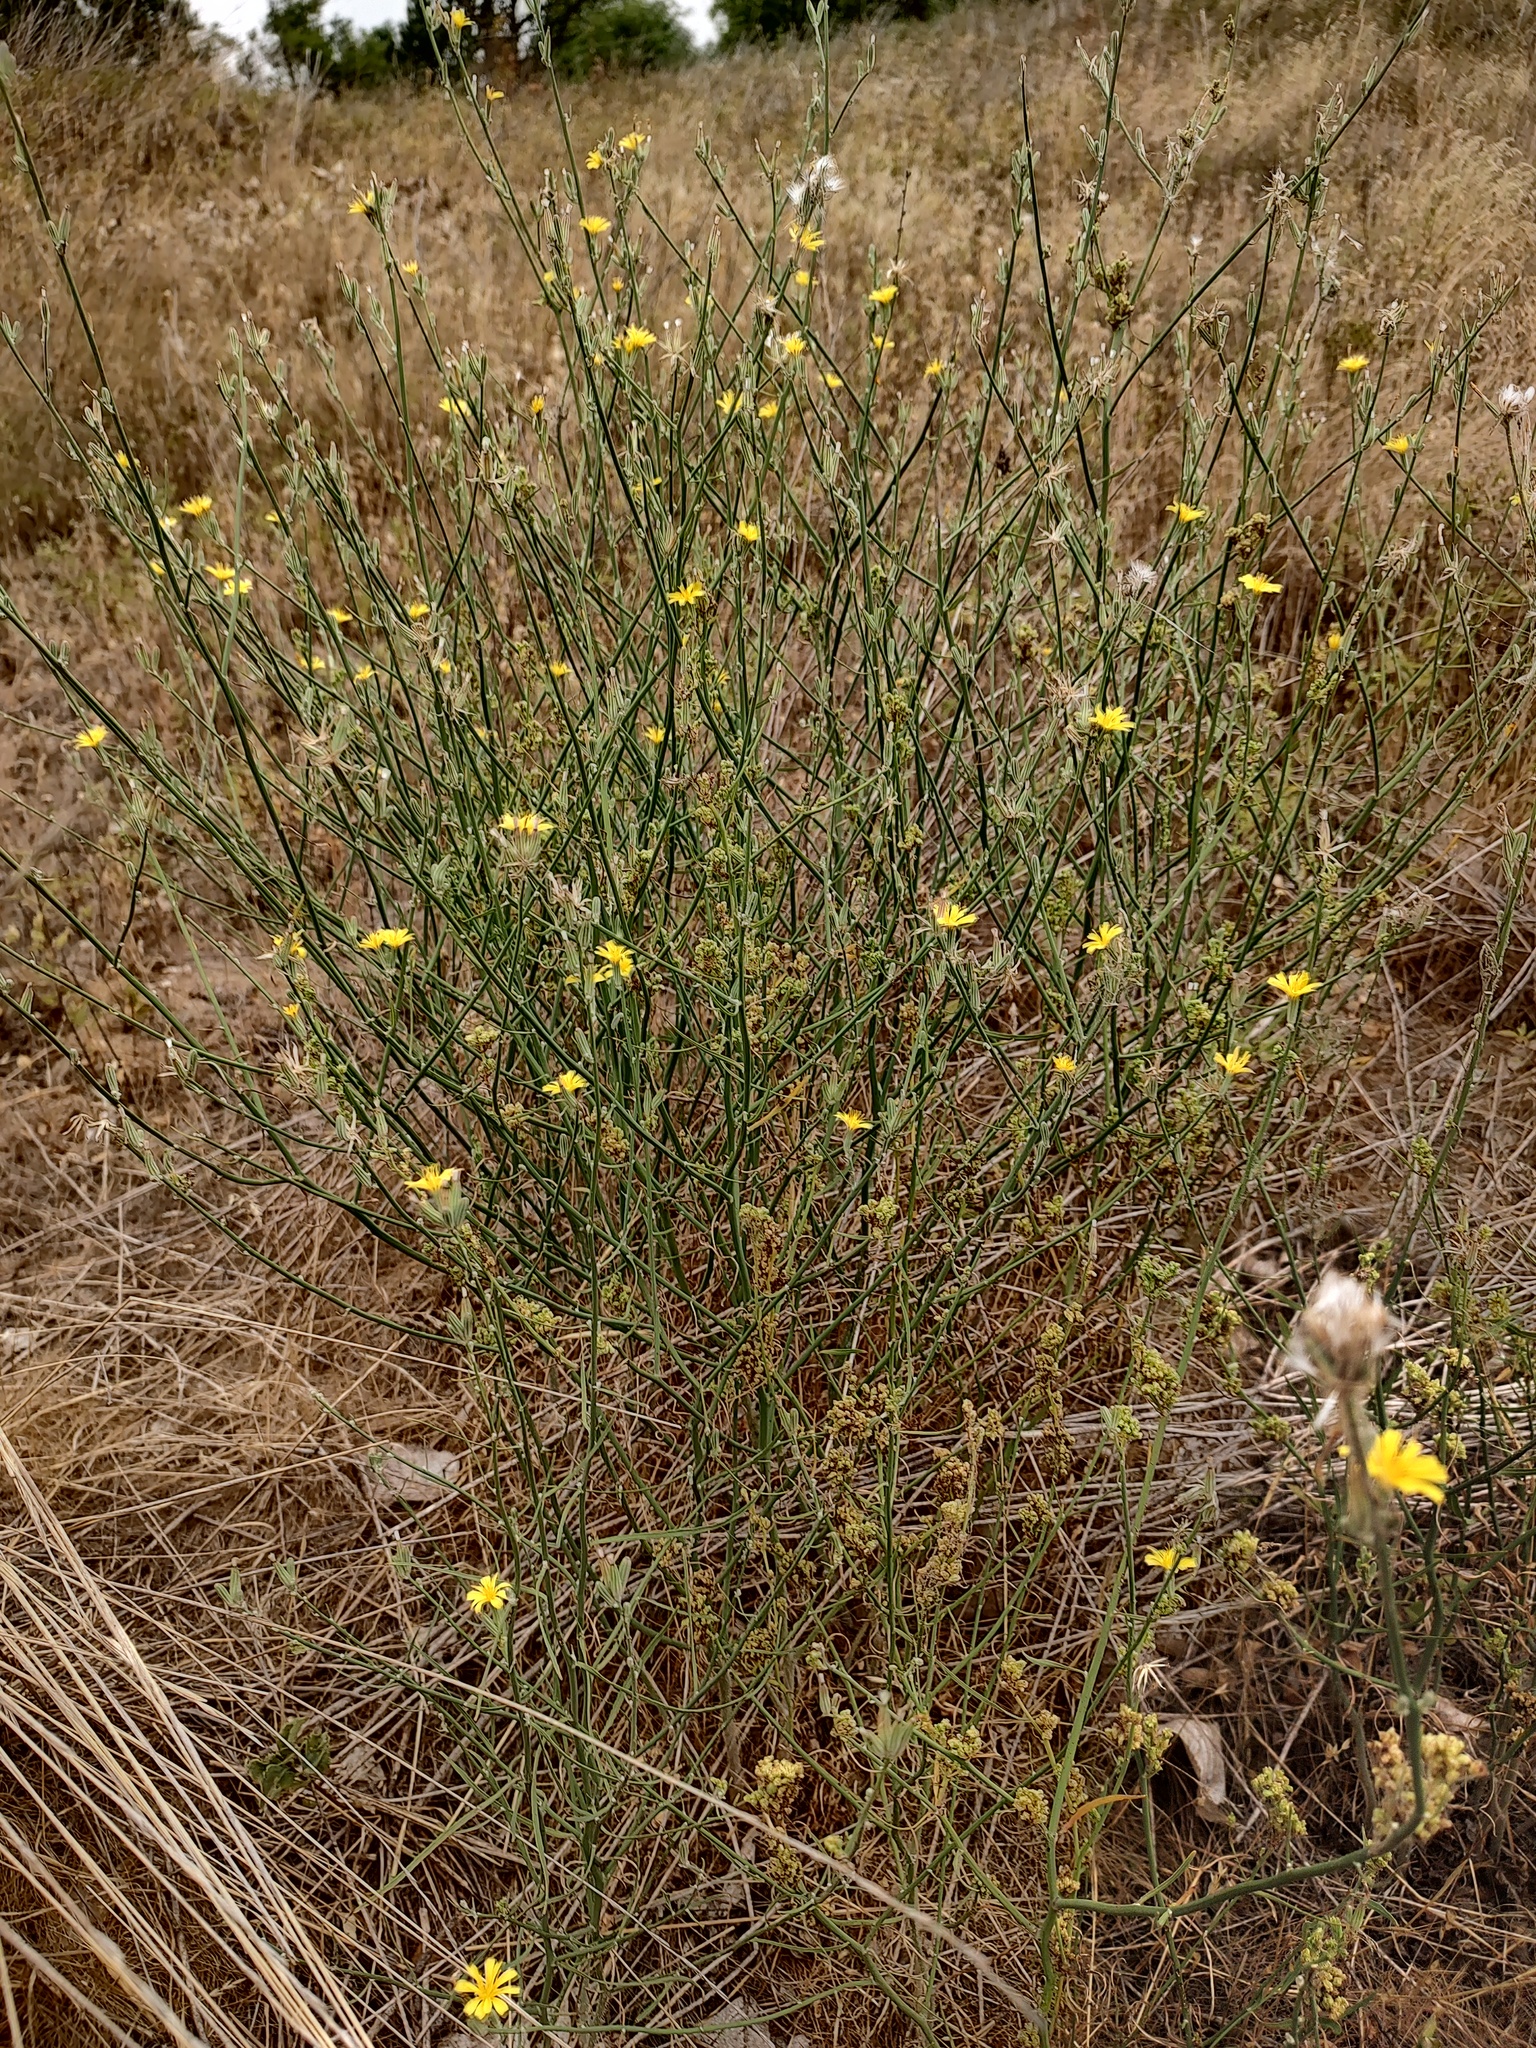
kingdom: Plantae
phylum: Tracheophyta
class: Magnoliopsida
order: Asterales
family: Asteraceae
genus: Chondrilla
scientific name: Chondrilla juncea
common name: Skeleton weed
